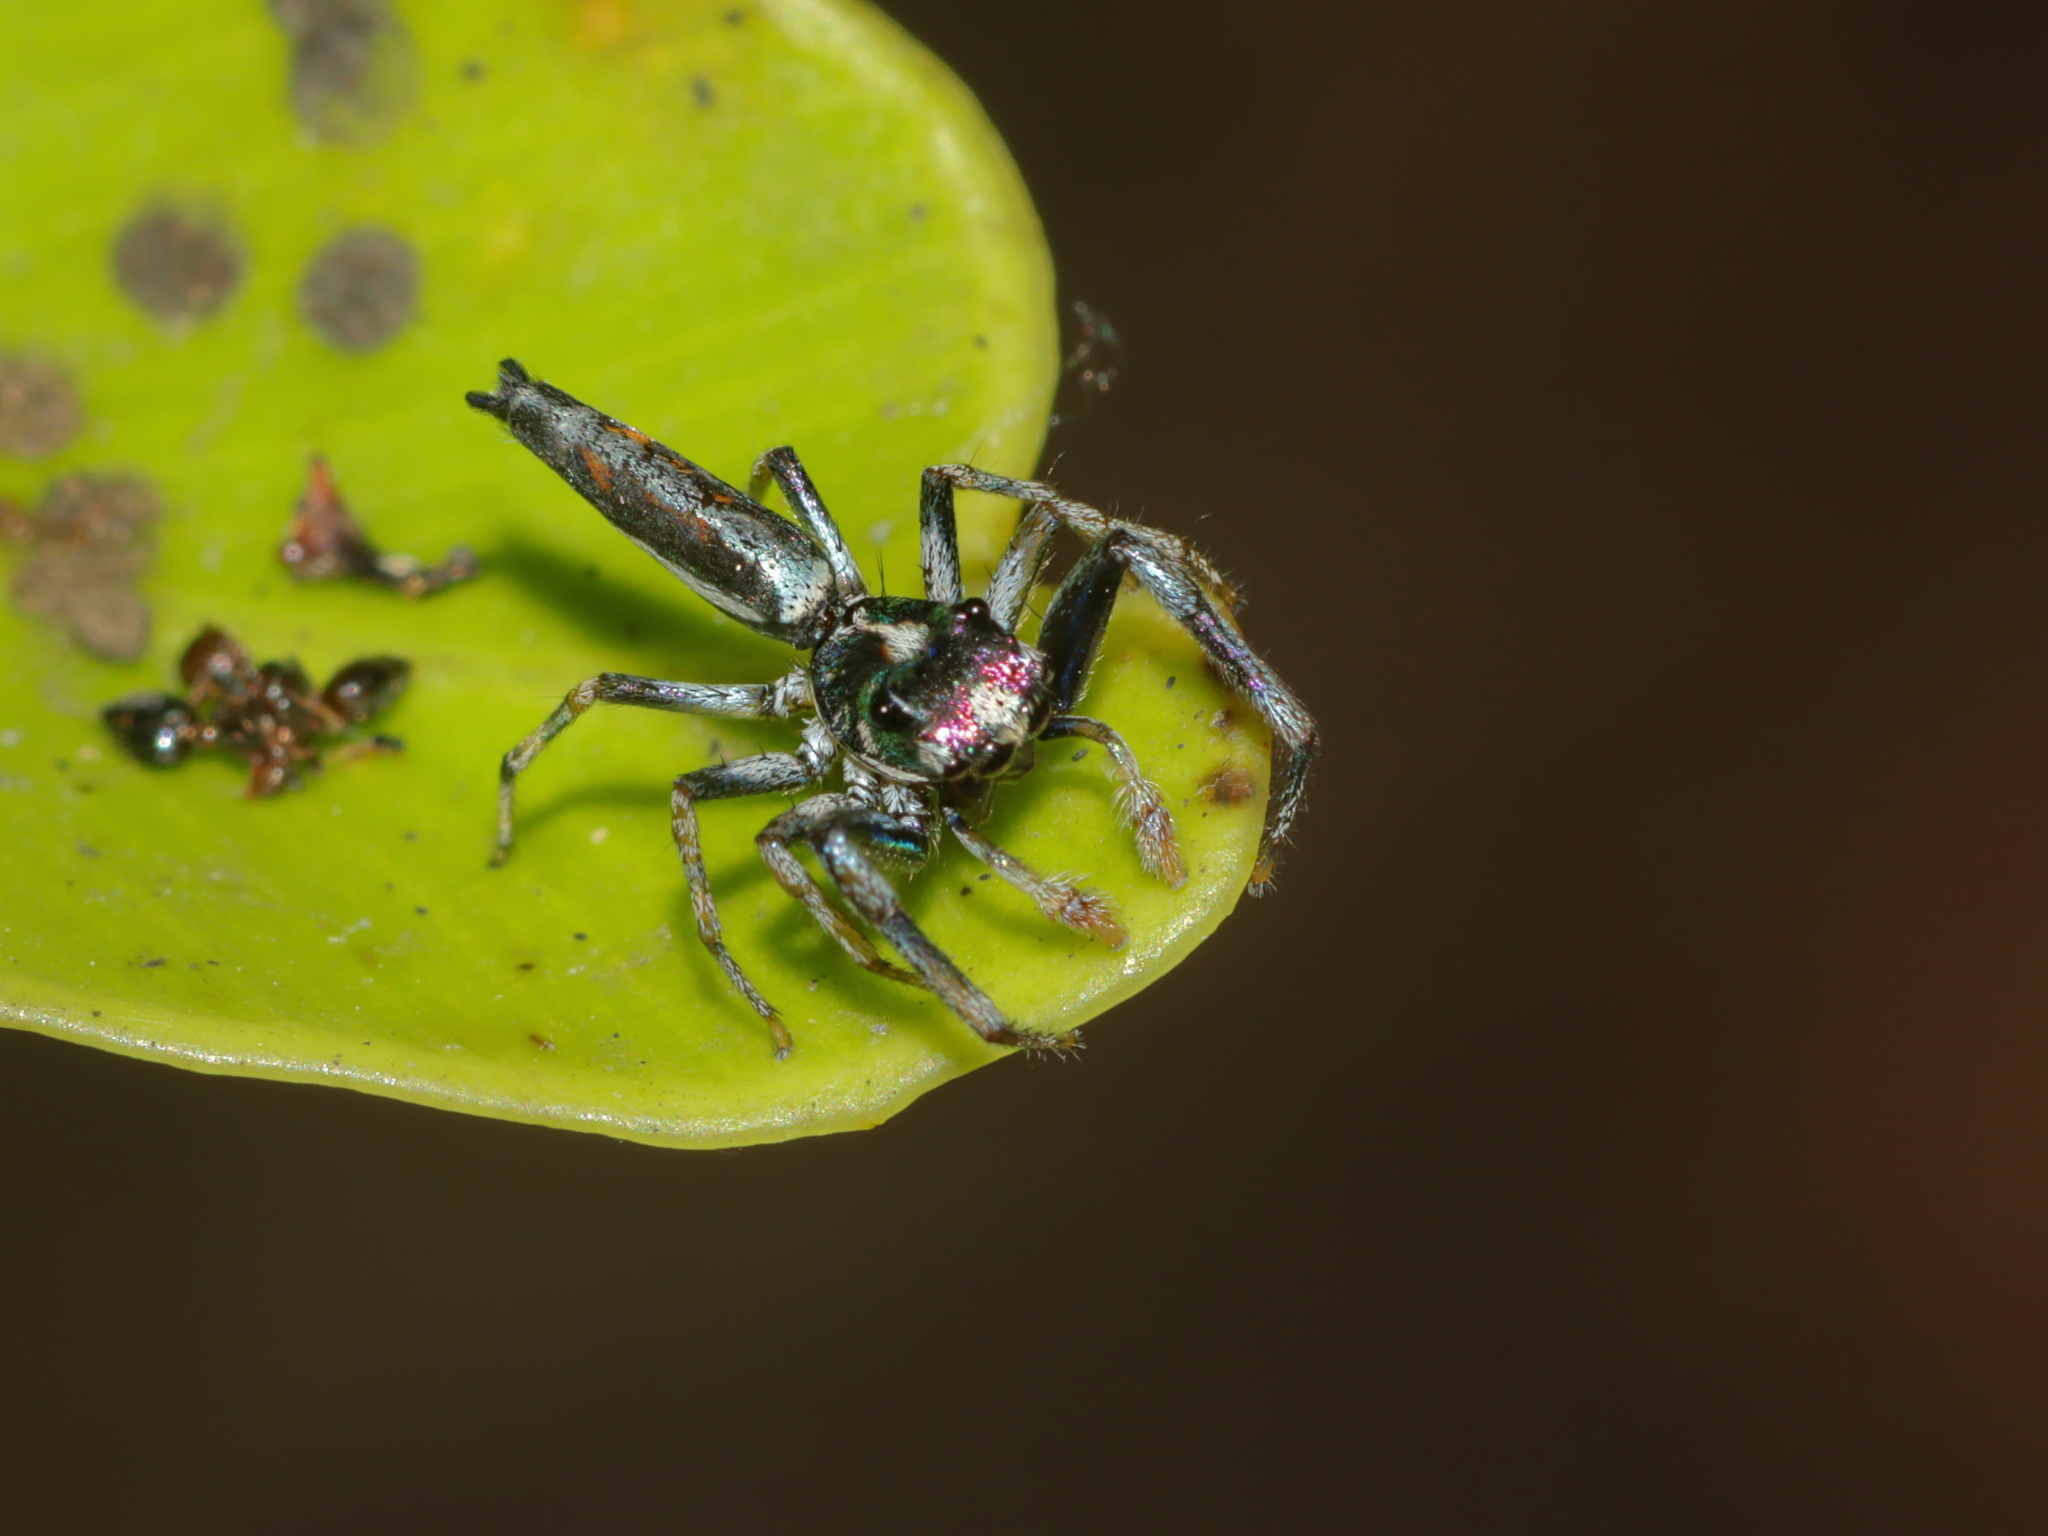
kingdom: Animalia
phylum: Arthropoda
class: Arachnida
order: Araneae
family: Salticidae
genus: Chrysilla
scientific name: Chrysilla acerosa
